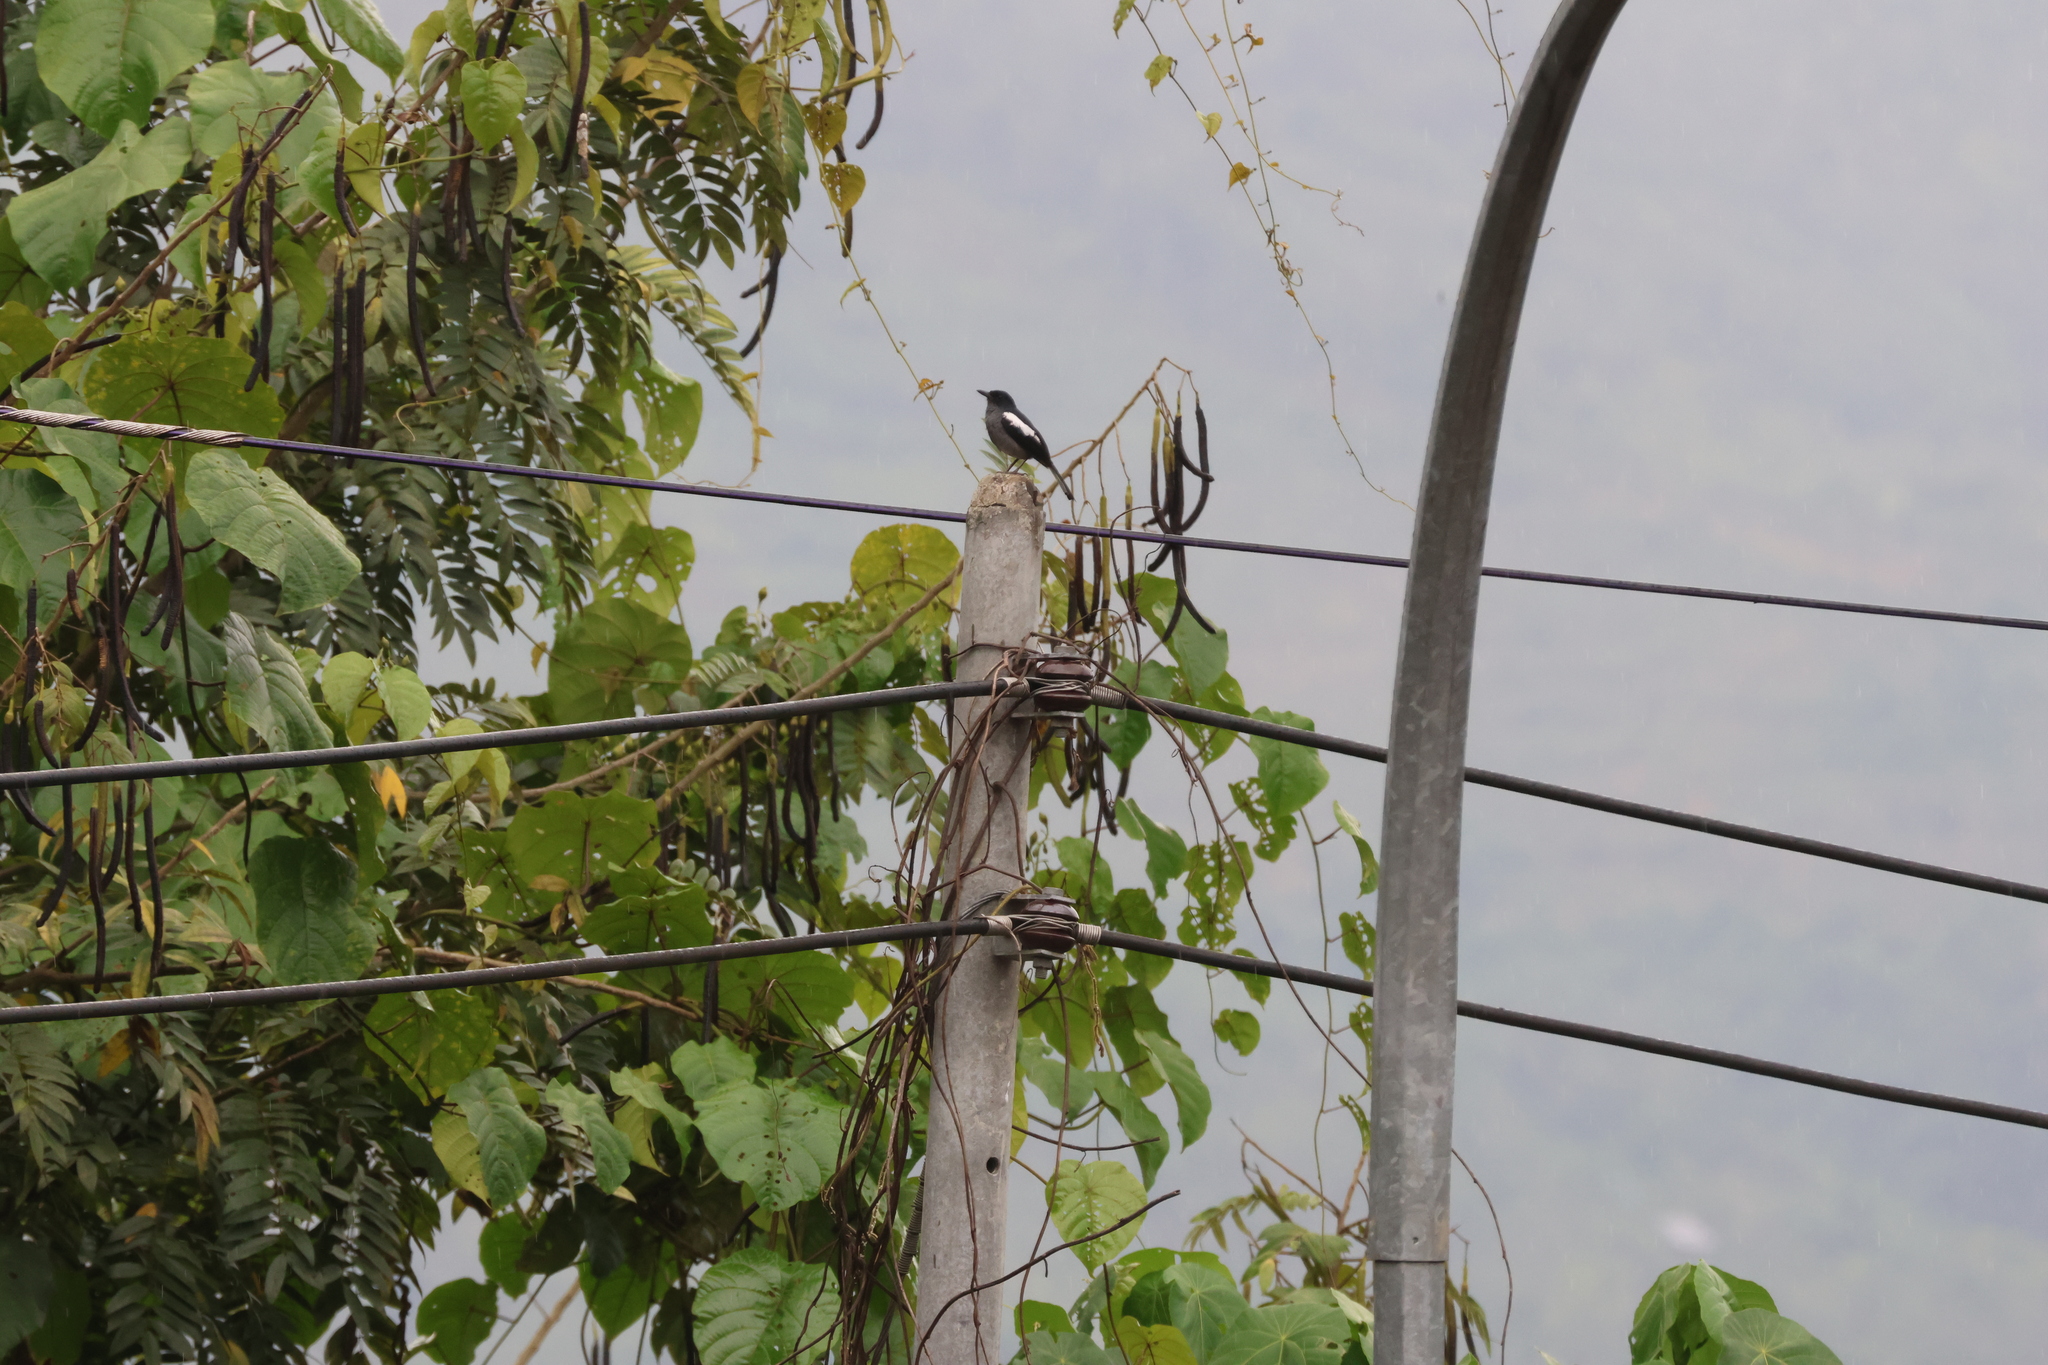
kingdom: Animalia
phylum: Chordata
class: Aves
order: Passeriformes
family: Muscicapidae
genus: Copsychus
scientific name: Copsychus saularis
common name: Oriental magpie-robin
